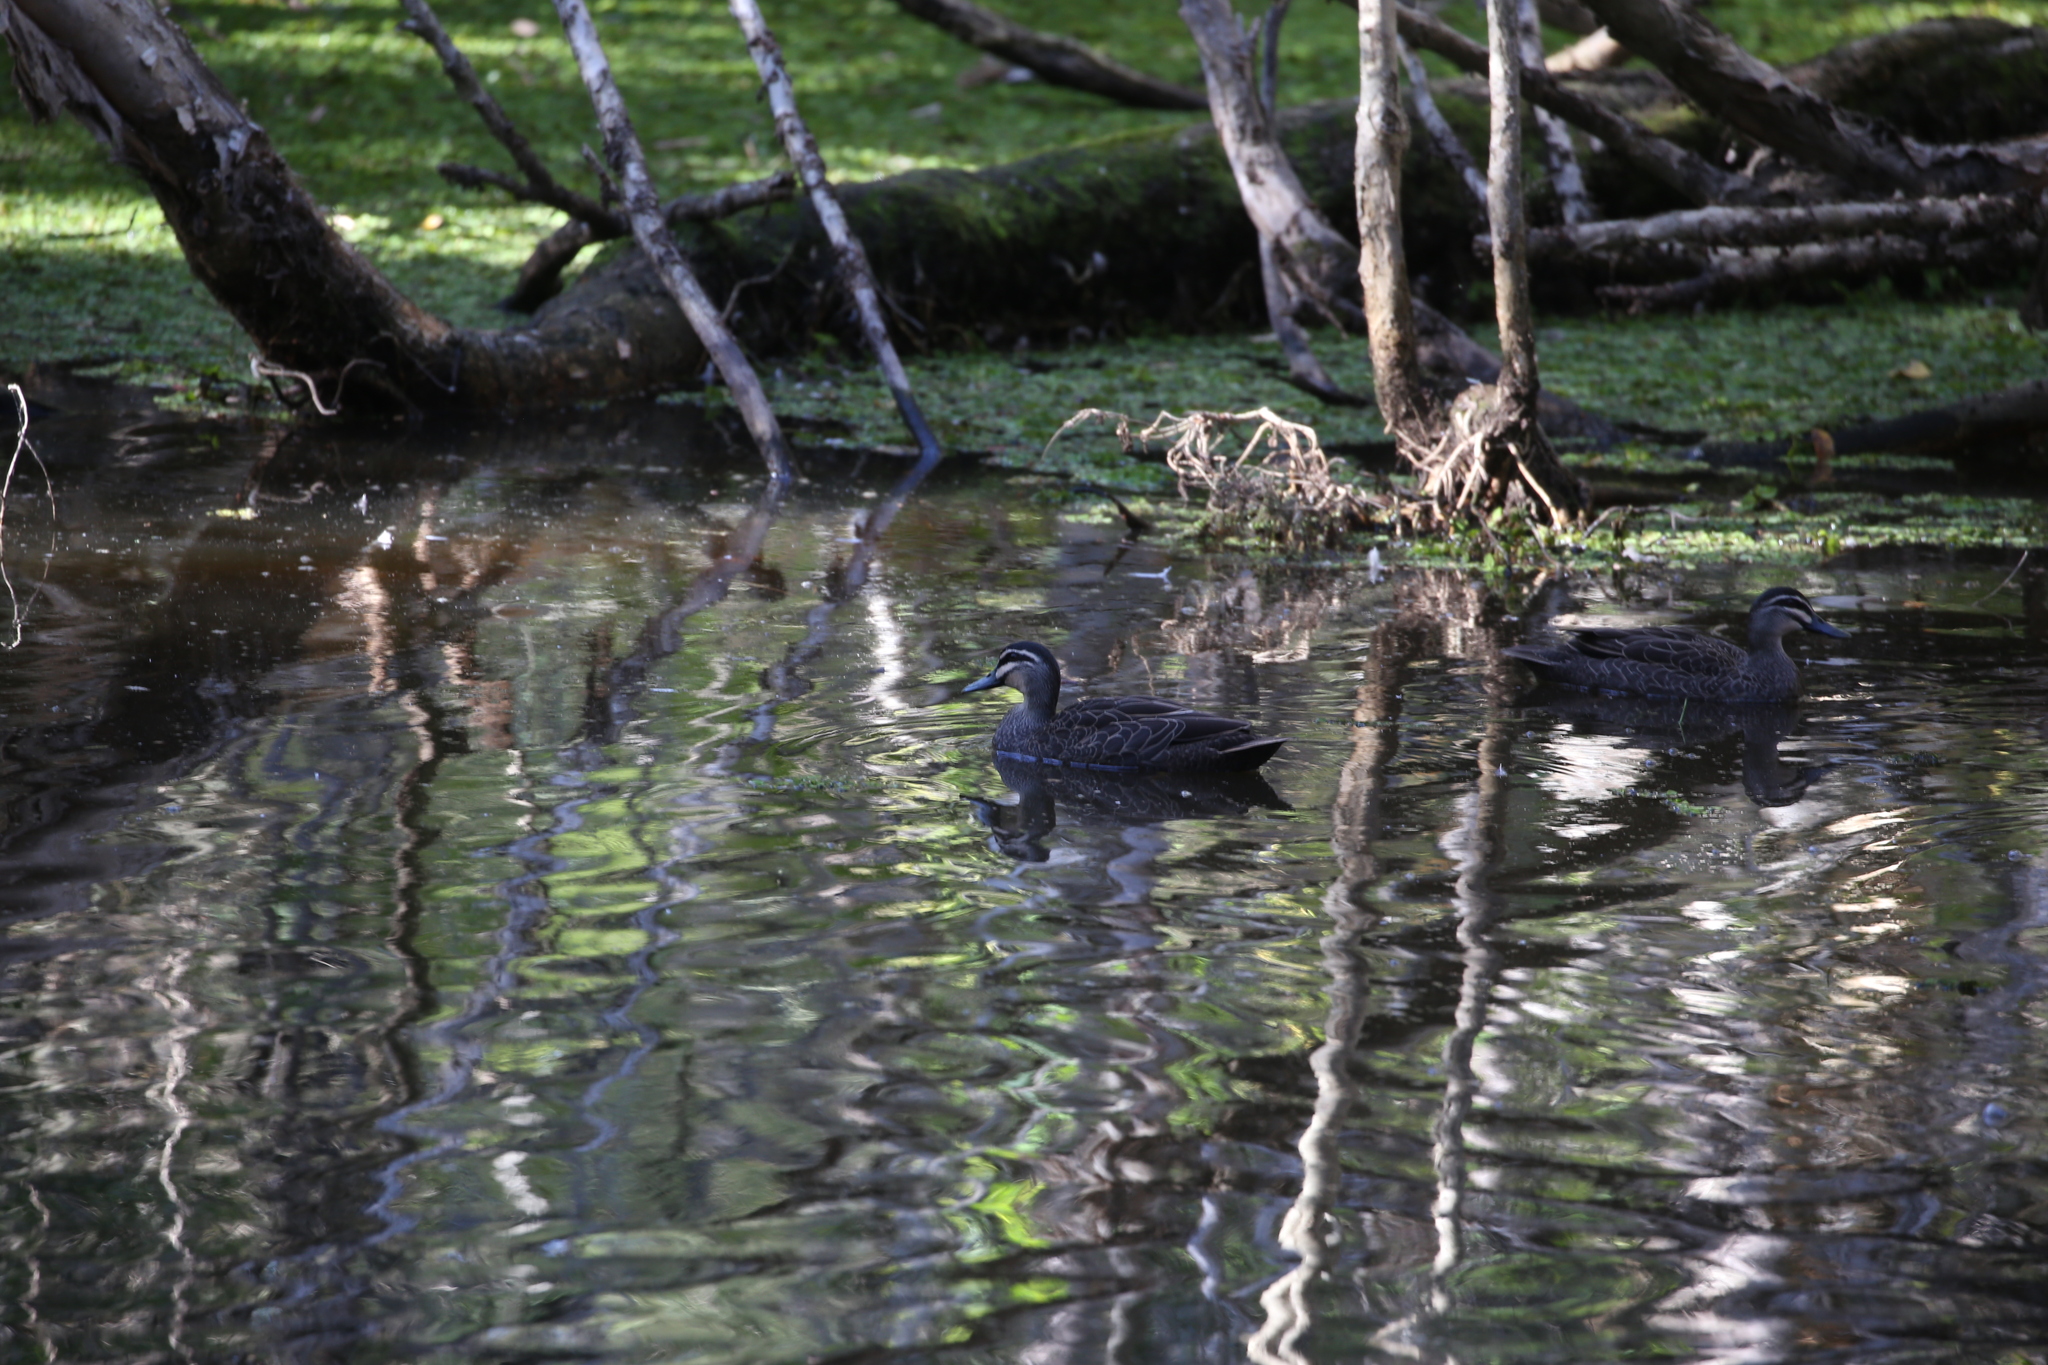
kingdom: Animalia
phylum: Chordata
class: Aves
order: Anseriformes
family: Anatidae
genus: Anas
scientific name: Anas superciliosa
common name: Pacific black duck
